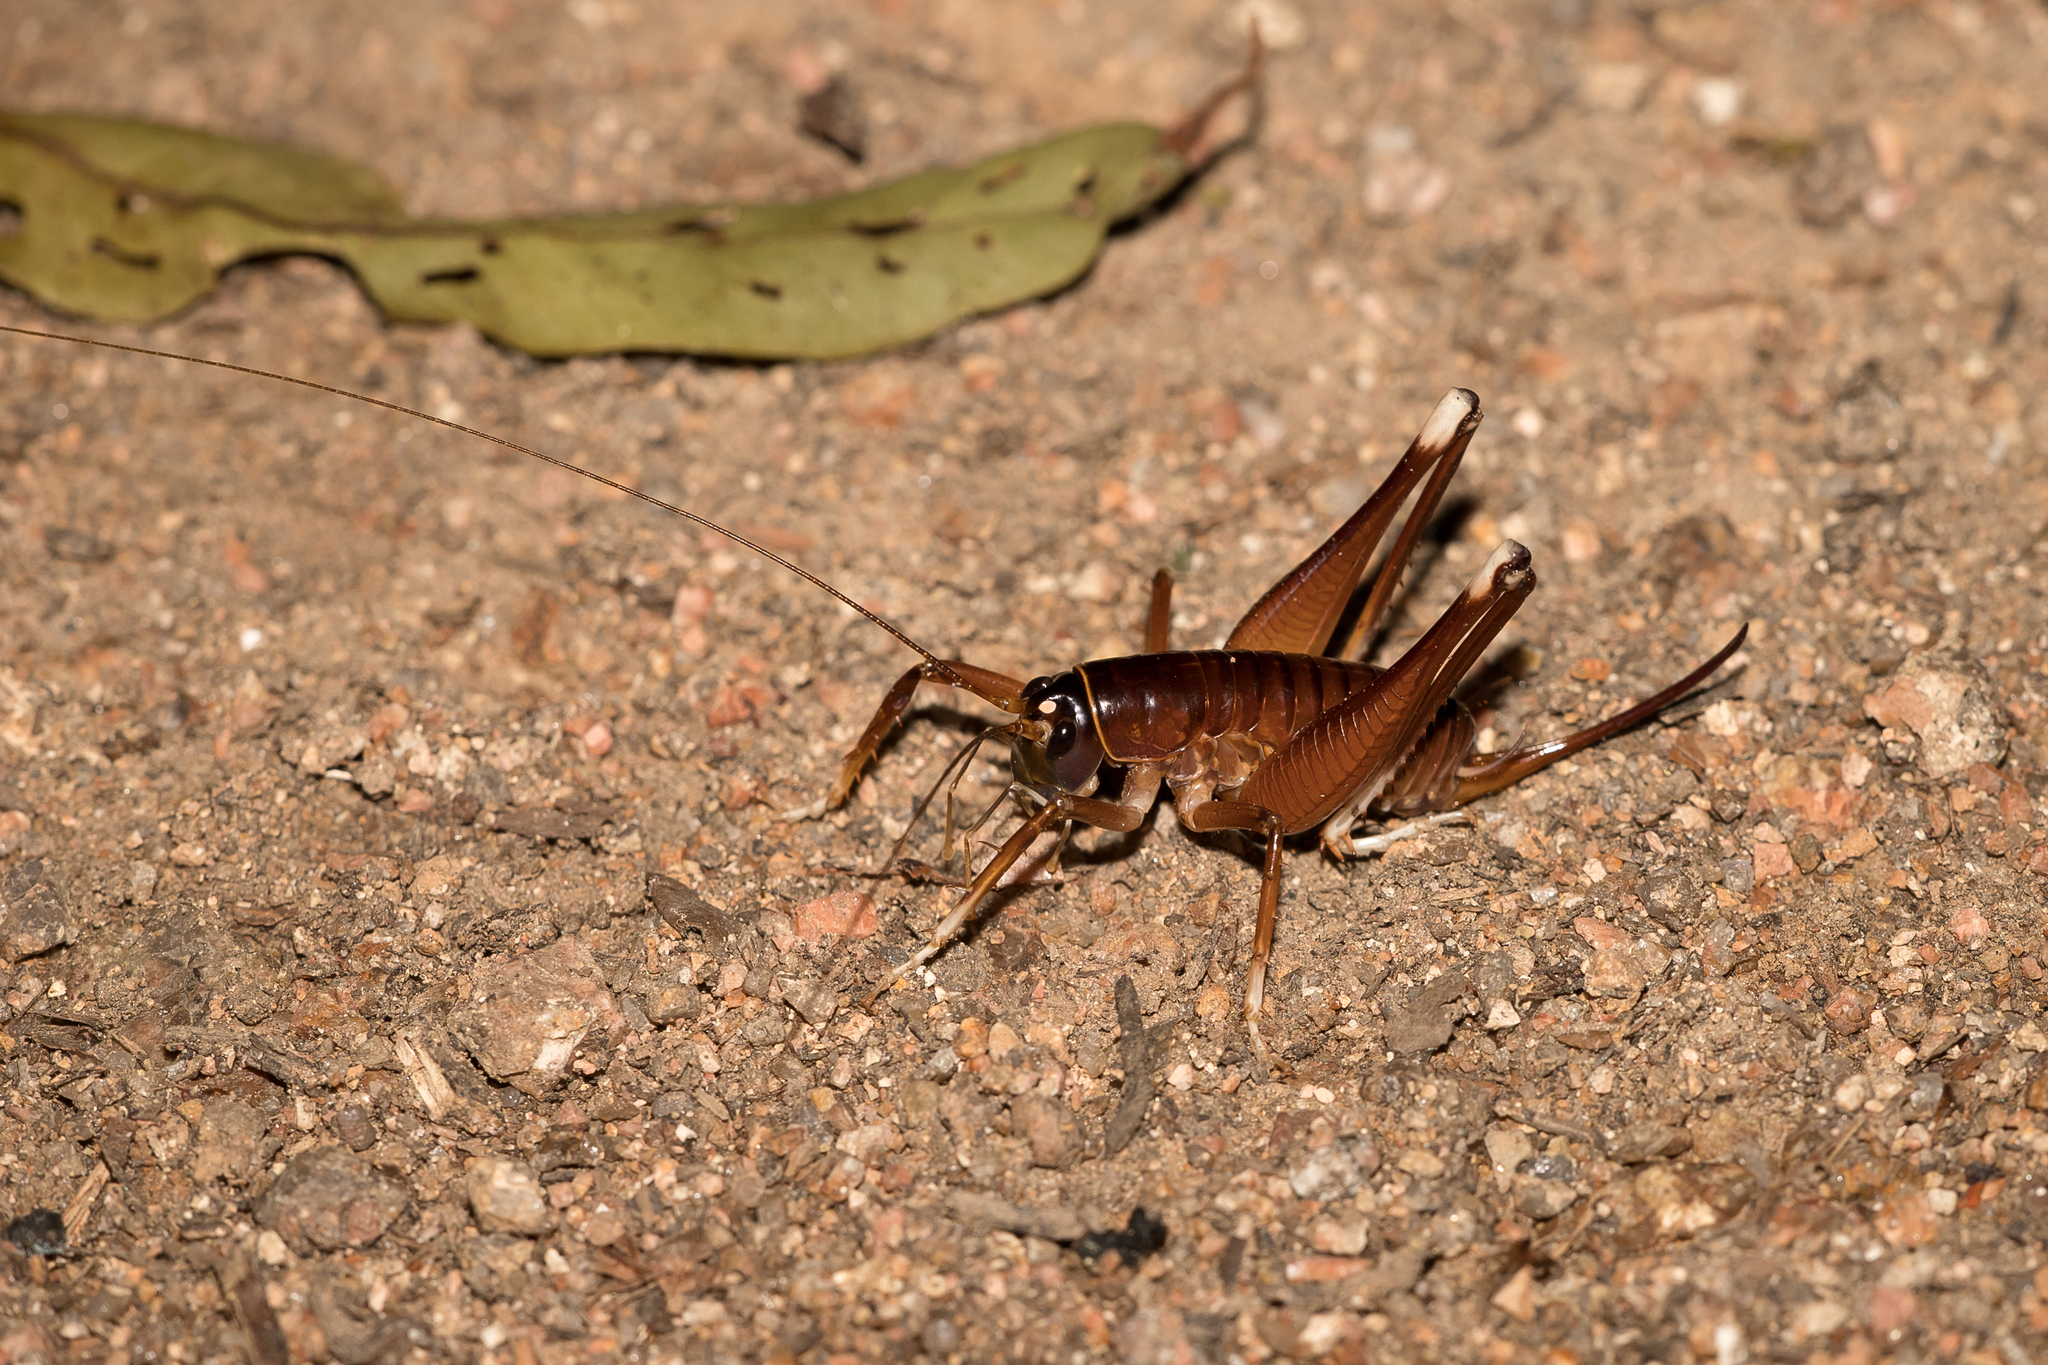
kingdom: Animalia
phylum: Arthropoda
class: Insecta
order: Orthoptera
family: Anostostomatidae
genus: Penalva
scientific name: Penalva flavocalceata
